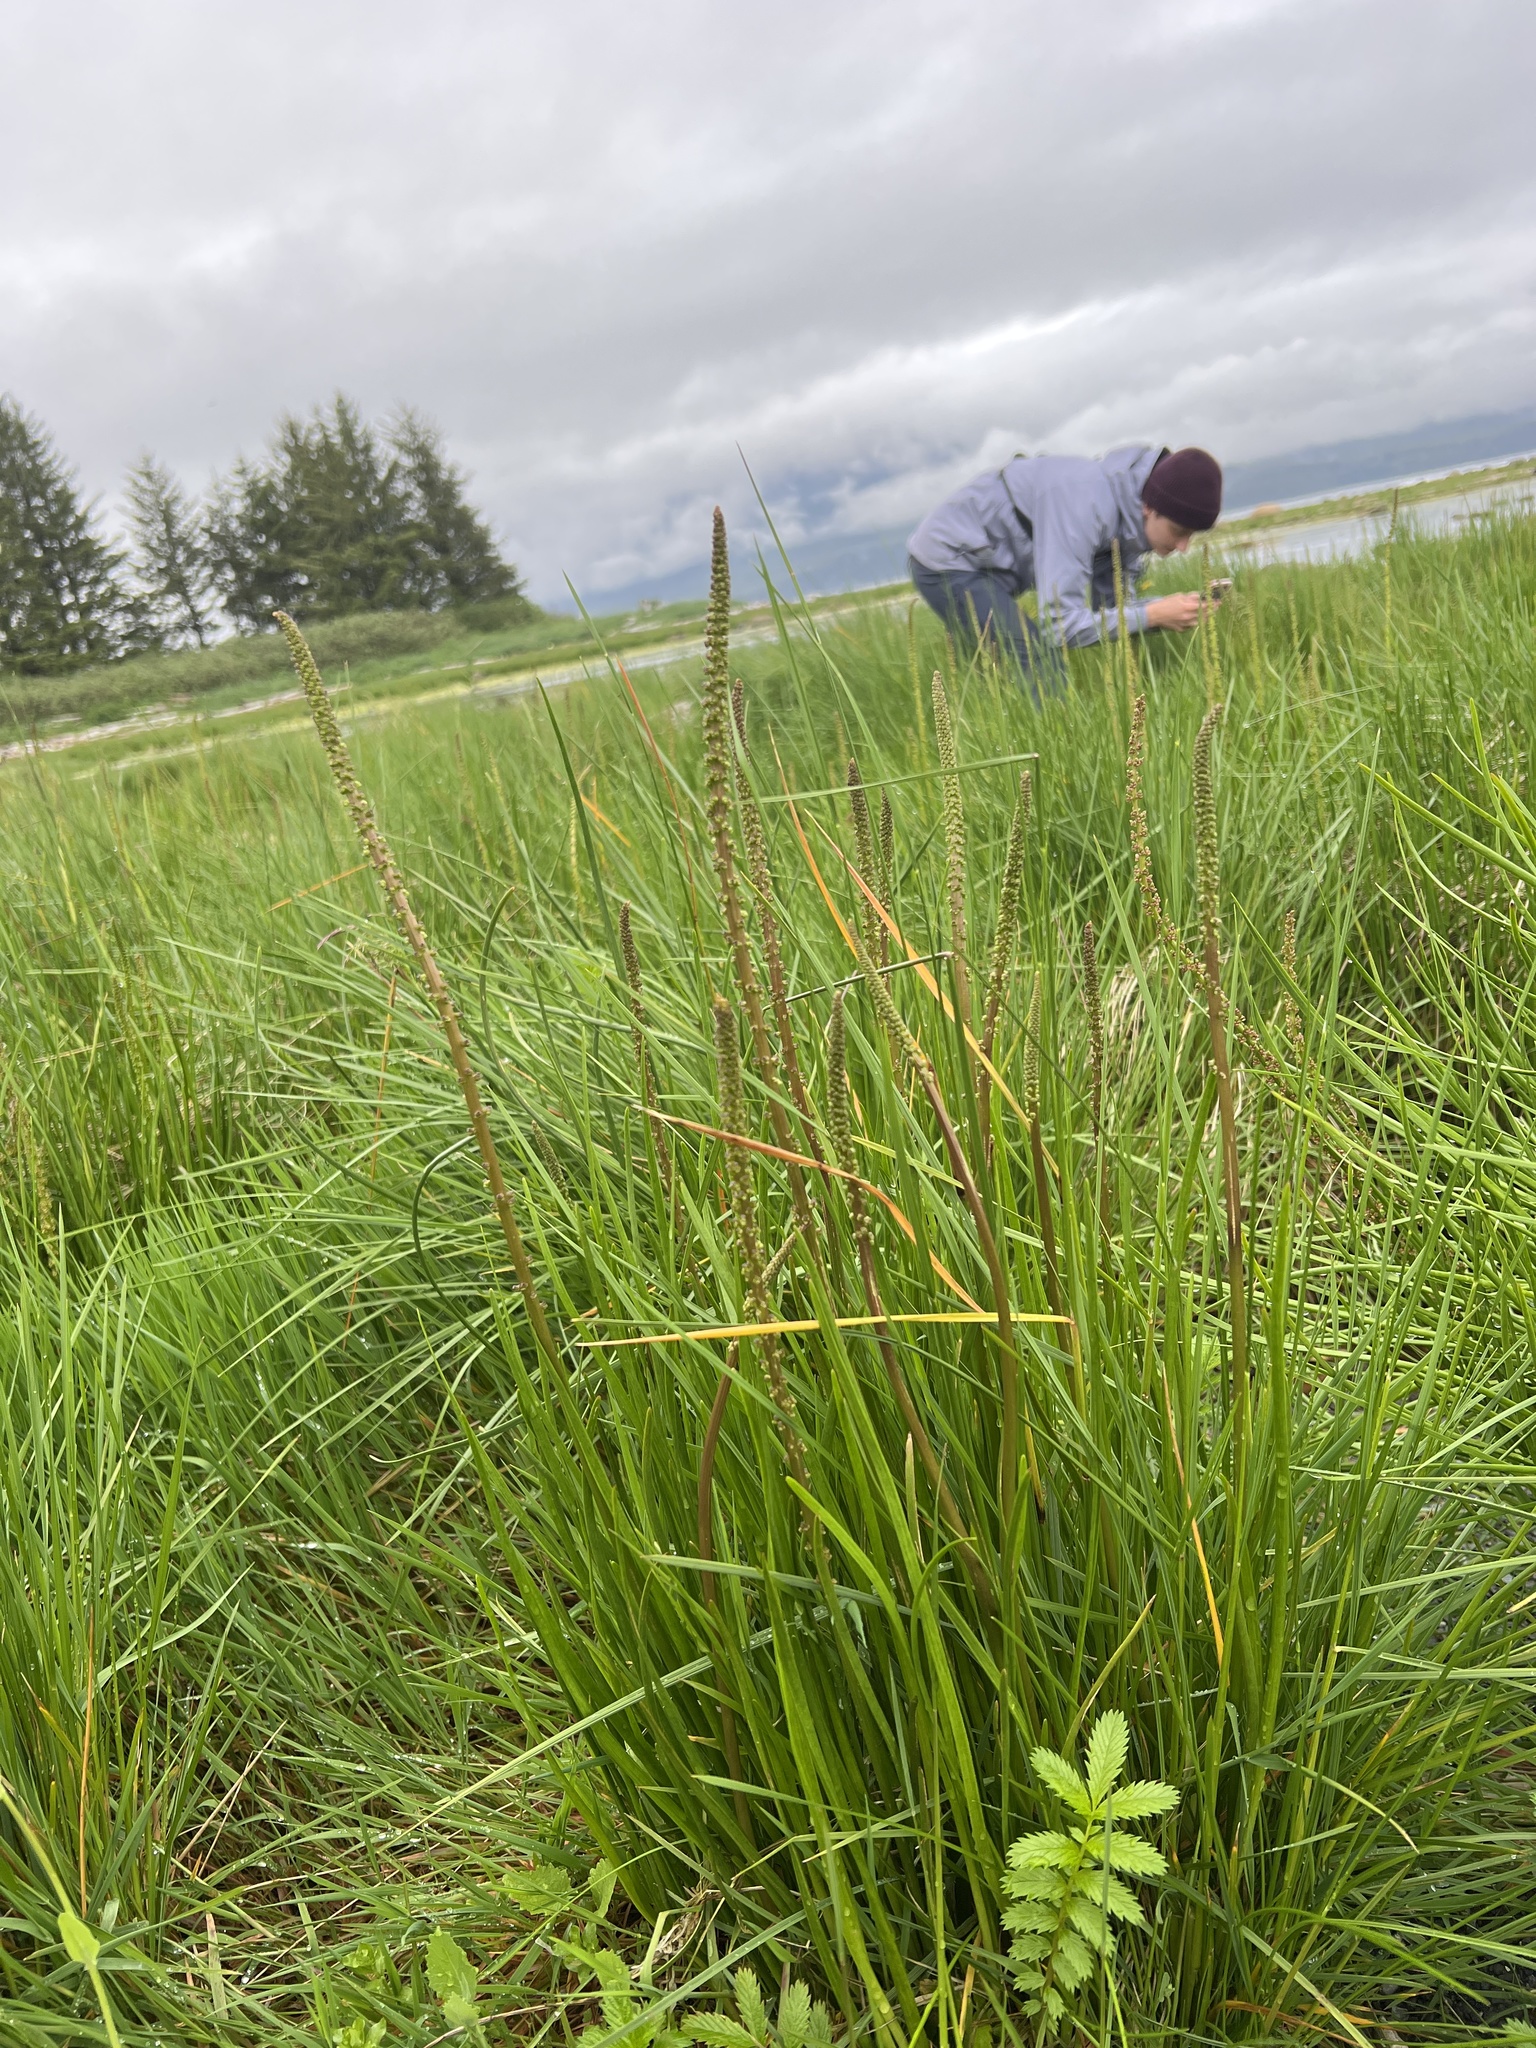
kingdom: Plantae
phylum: Tracheophyta
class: Liliopsida
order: Alismatales
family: Juncaginaceae
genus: Triglochin
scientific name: Triglochin maritima
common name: Sea arrowgrass
